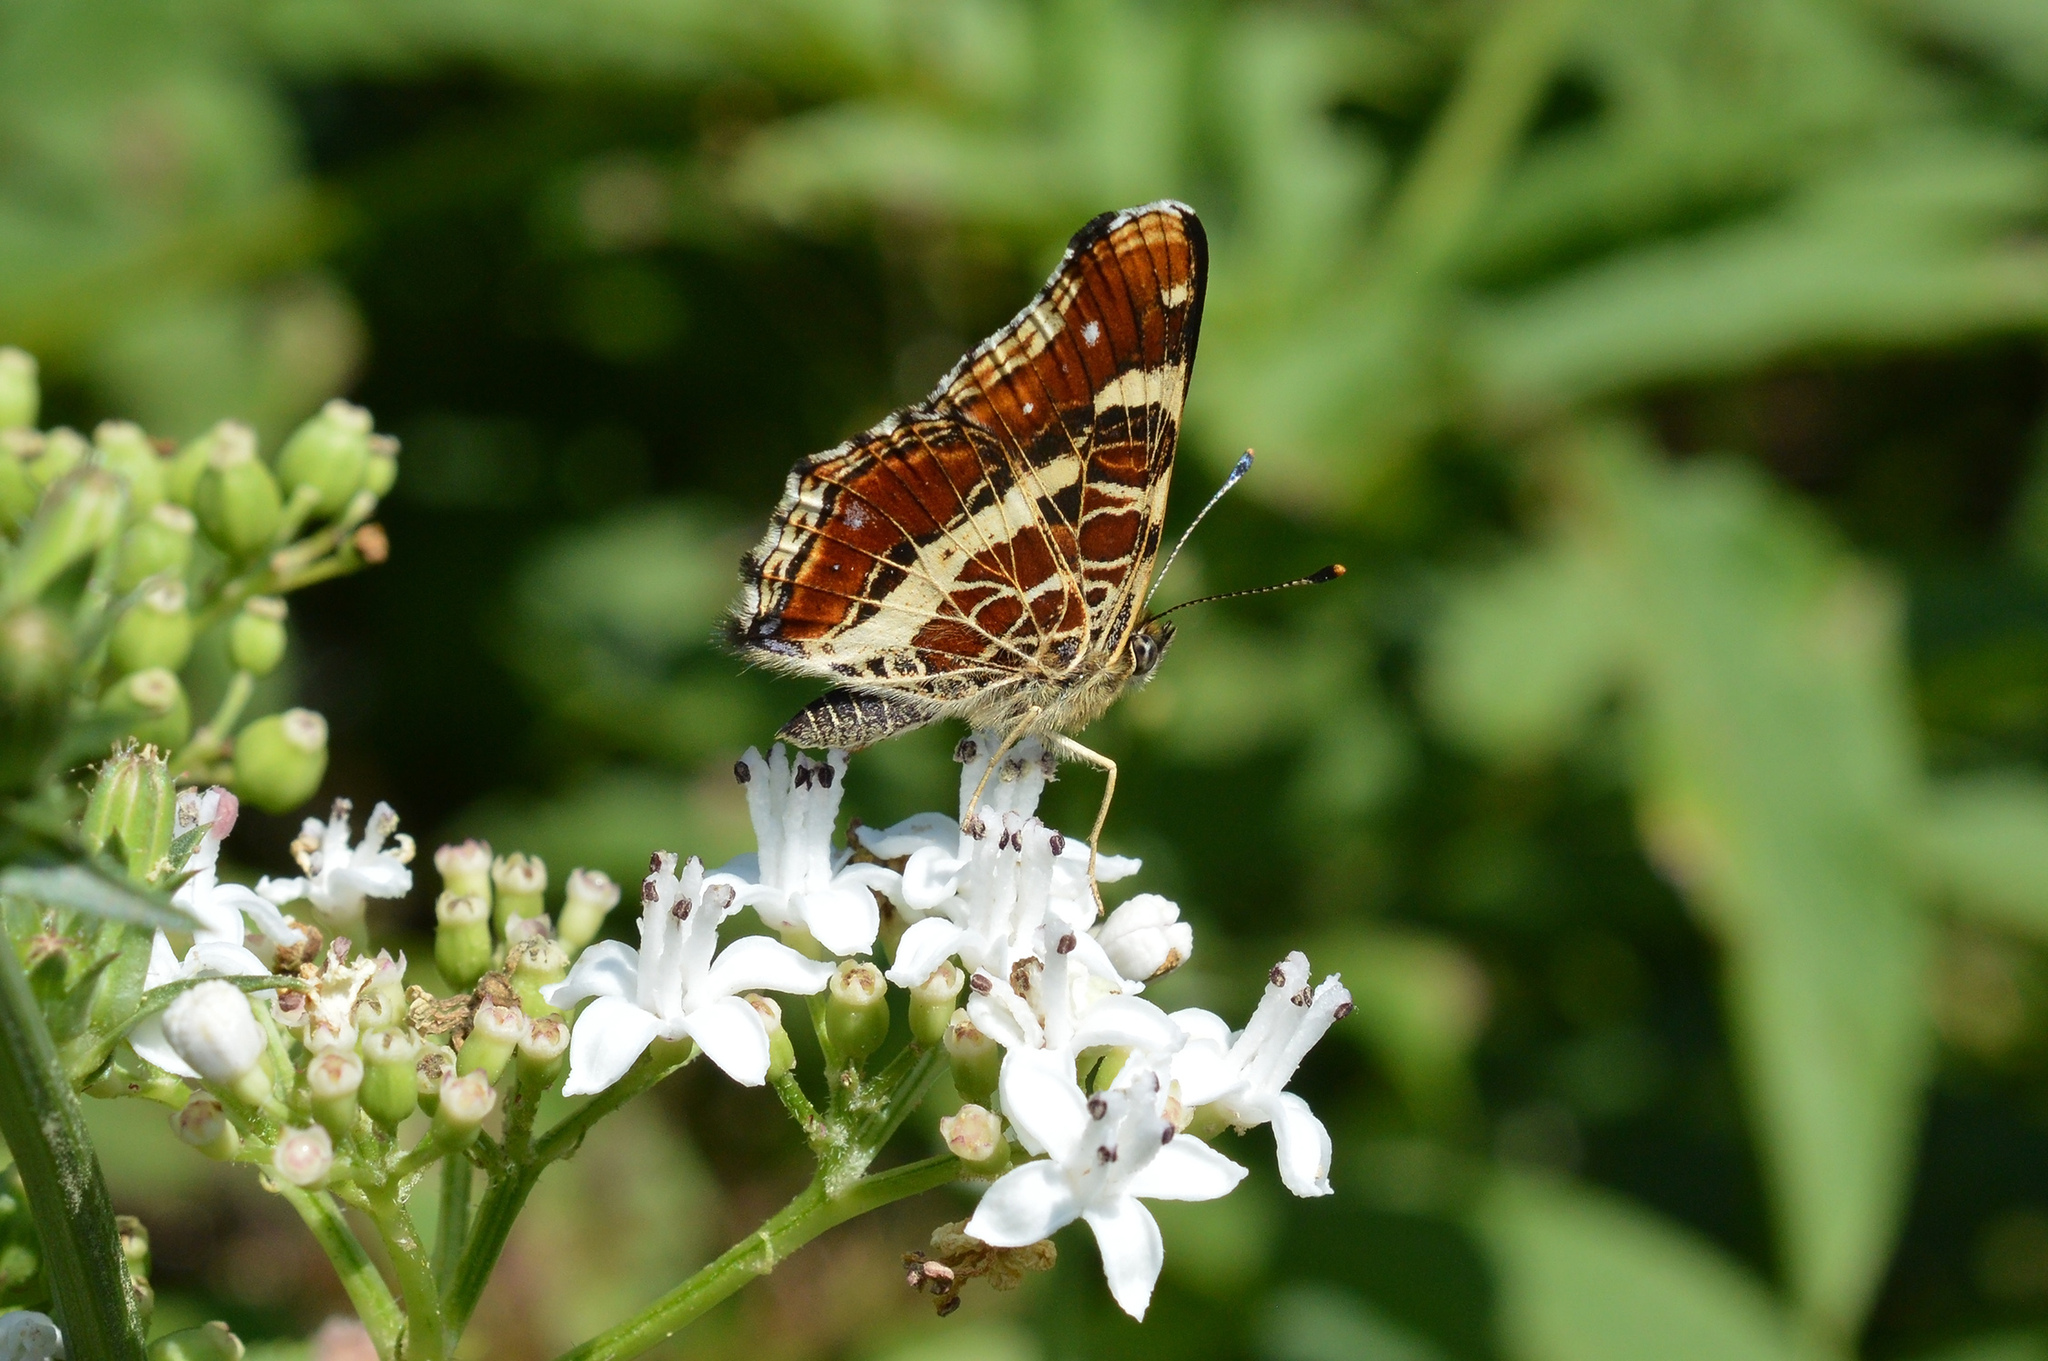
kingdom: Animalia
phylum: Arthropoda
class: Insecta
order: Lepidoptera
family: Nymphalidae
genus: Araschnia
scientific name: Araschnia levana
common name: Map butterfly
